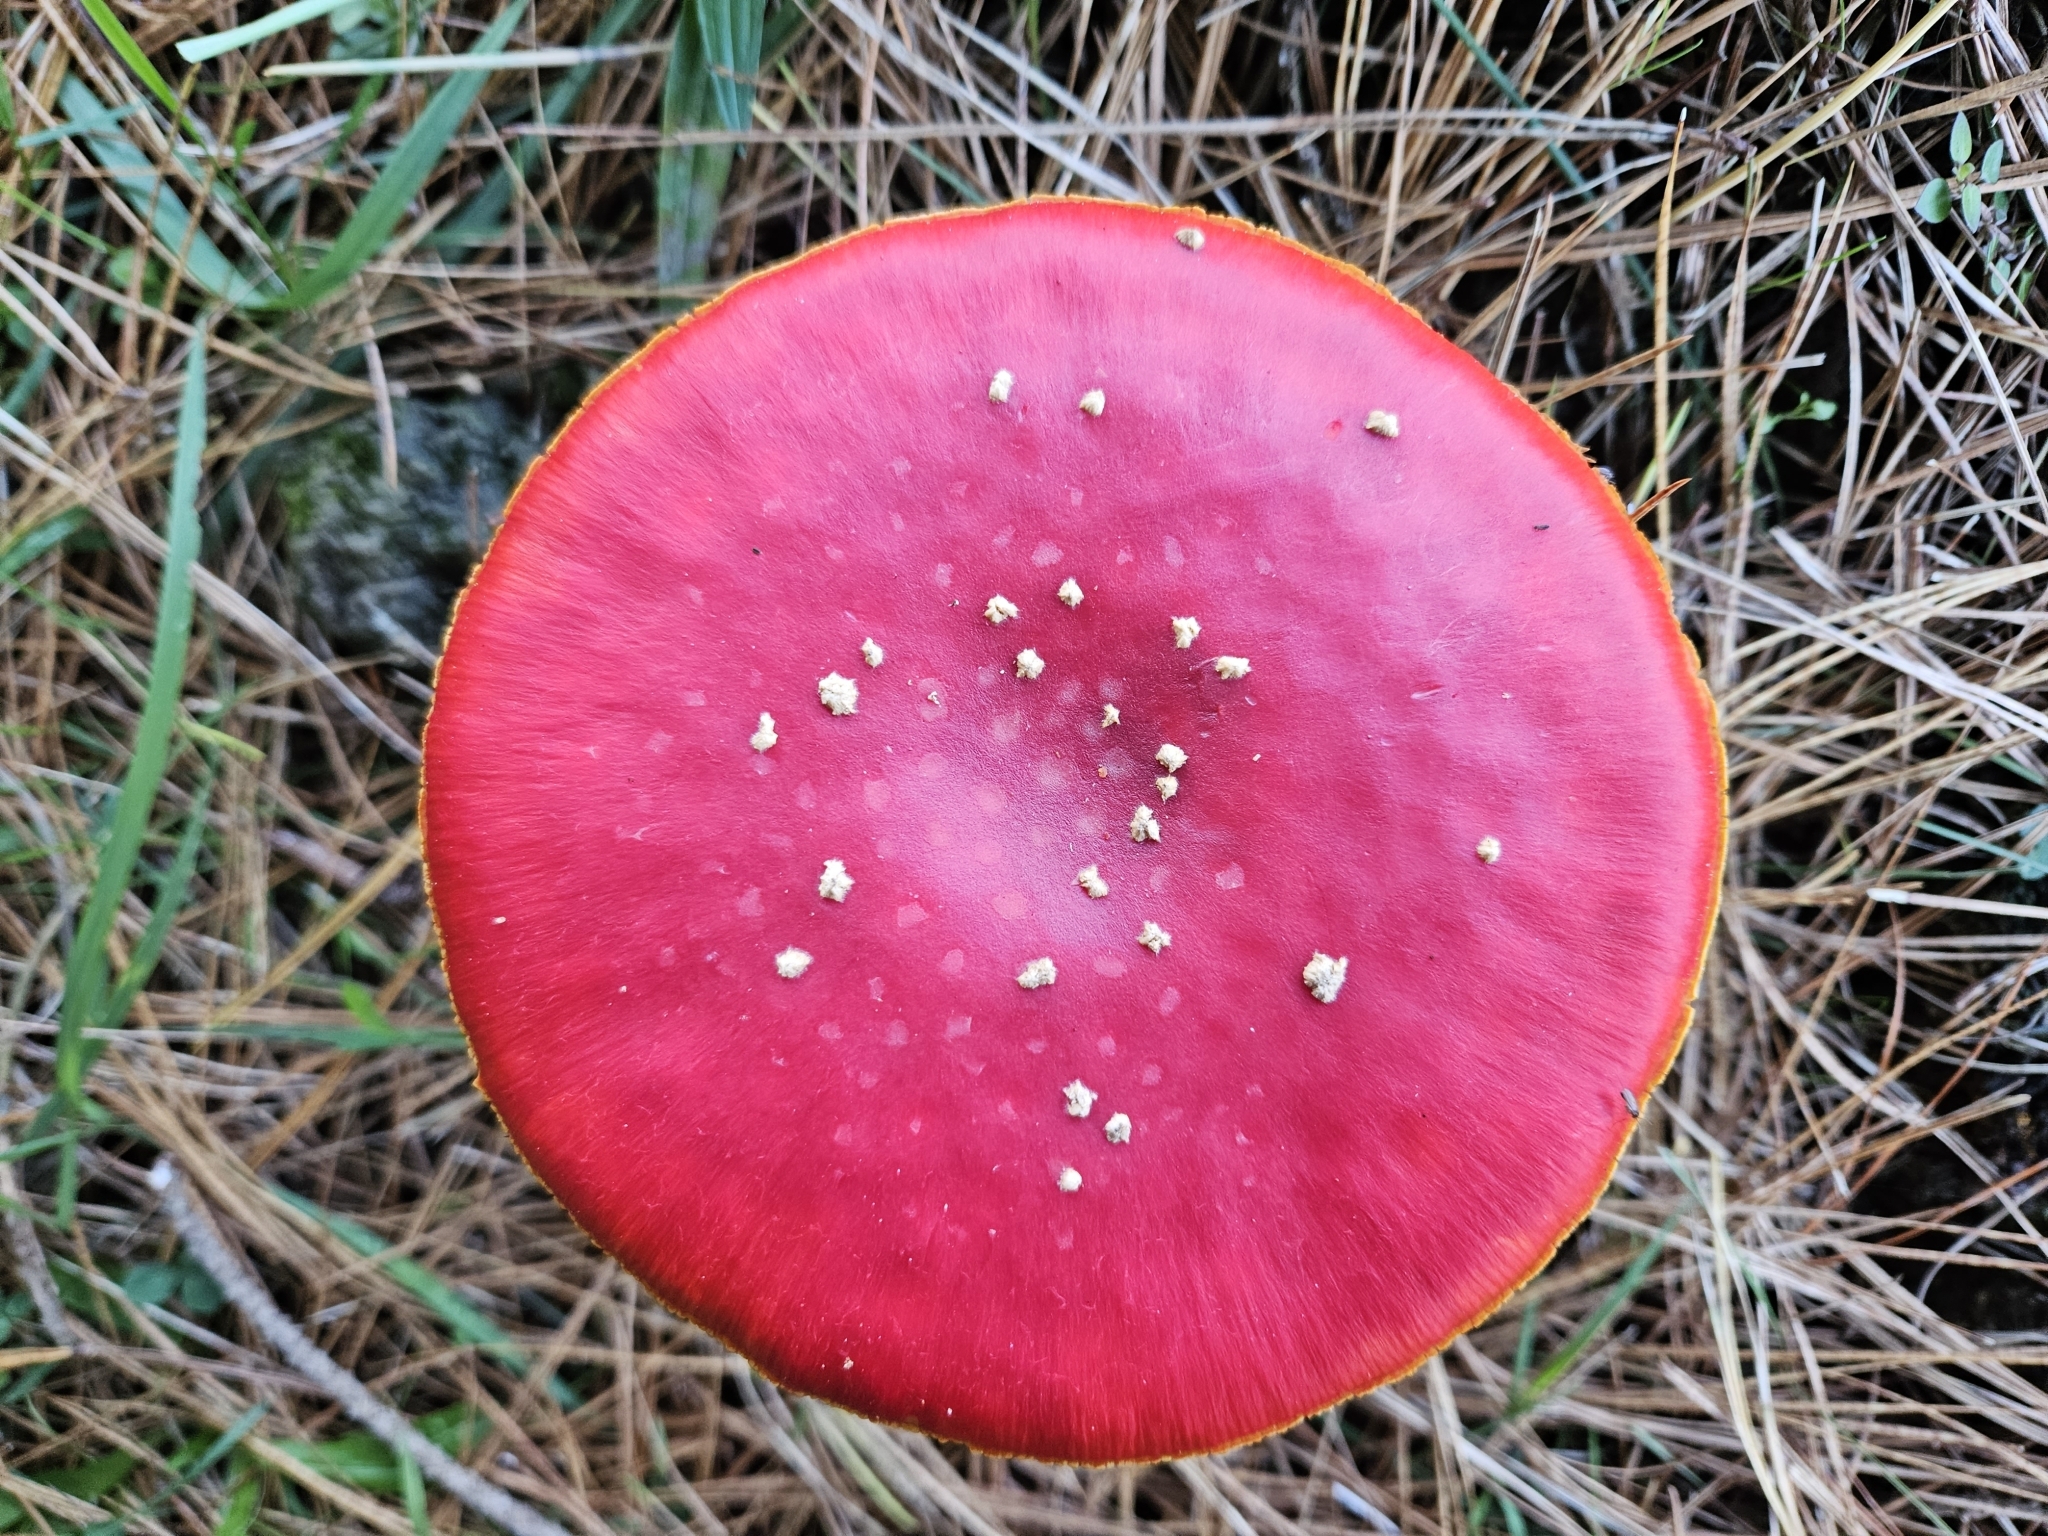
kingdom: Fungi
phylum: Basidiomycota
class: Agaricomycetes
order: Agaricales
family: Amanitaceae
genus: Amanita
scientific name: Amanita muscaria
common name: Fly agaric
